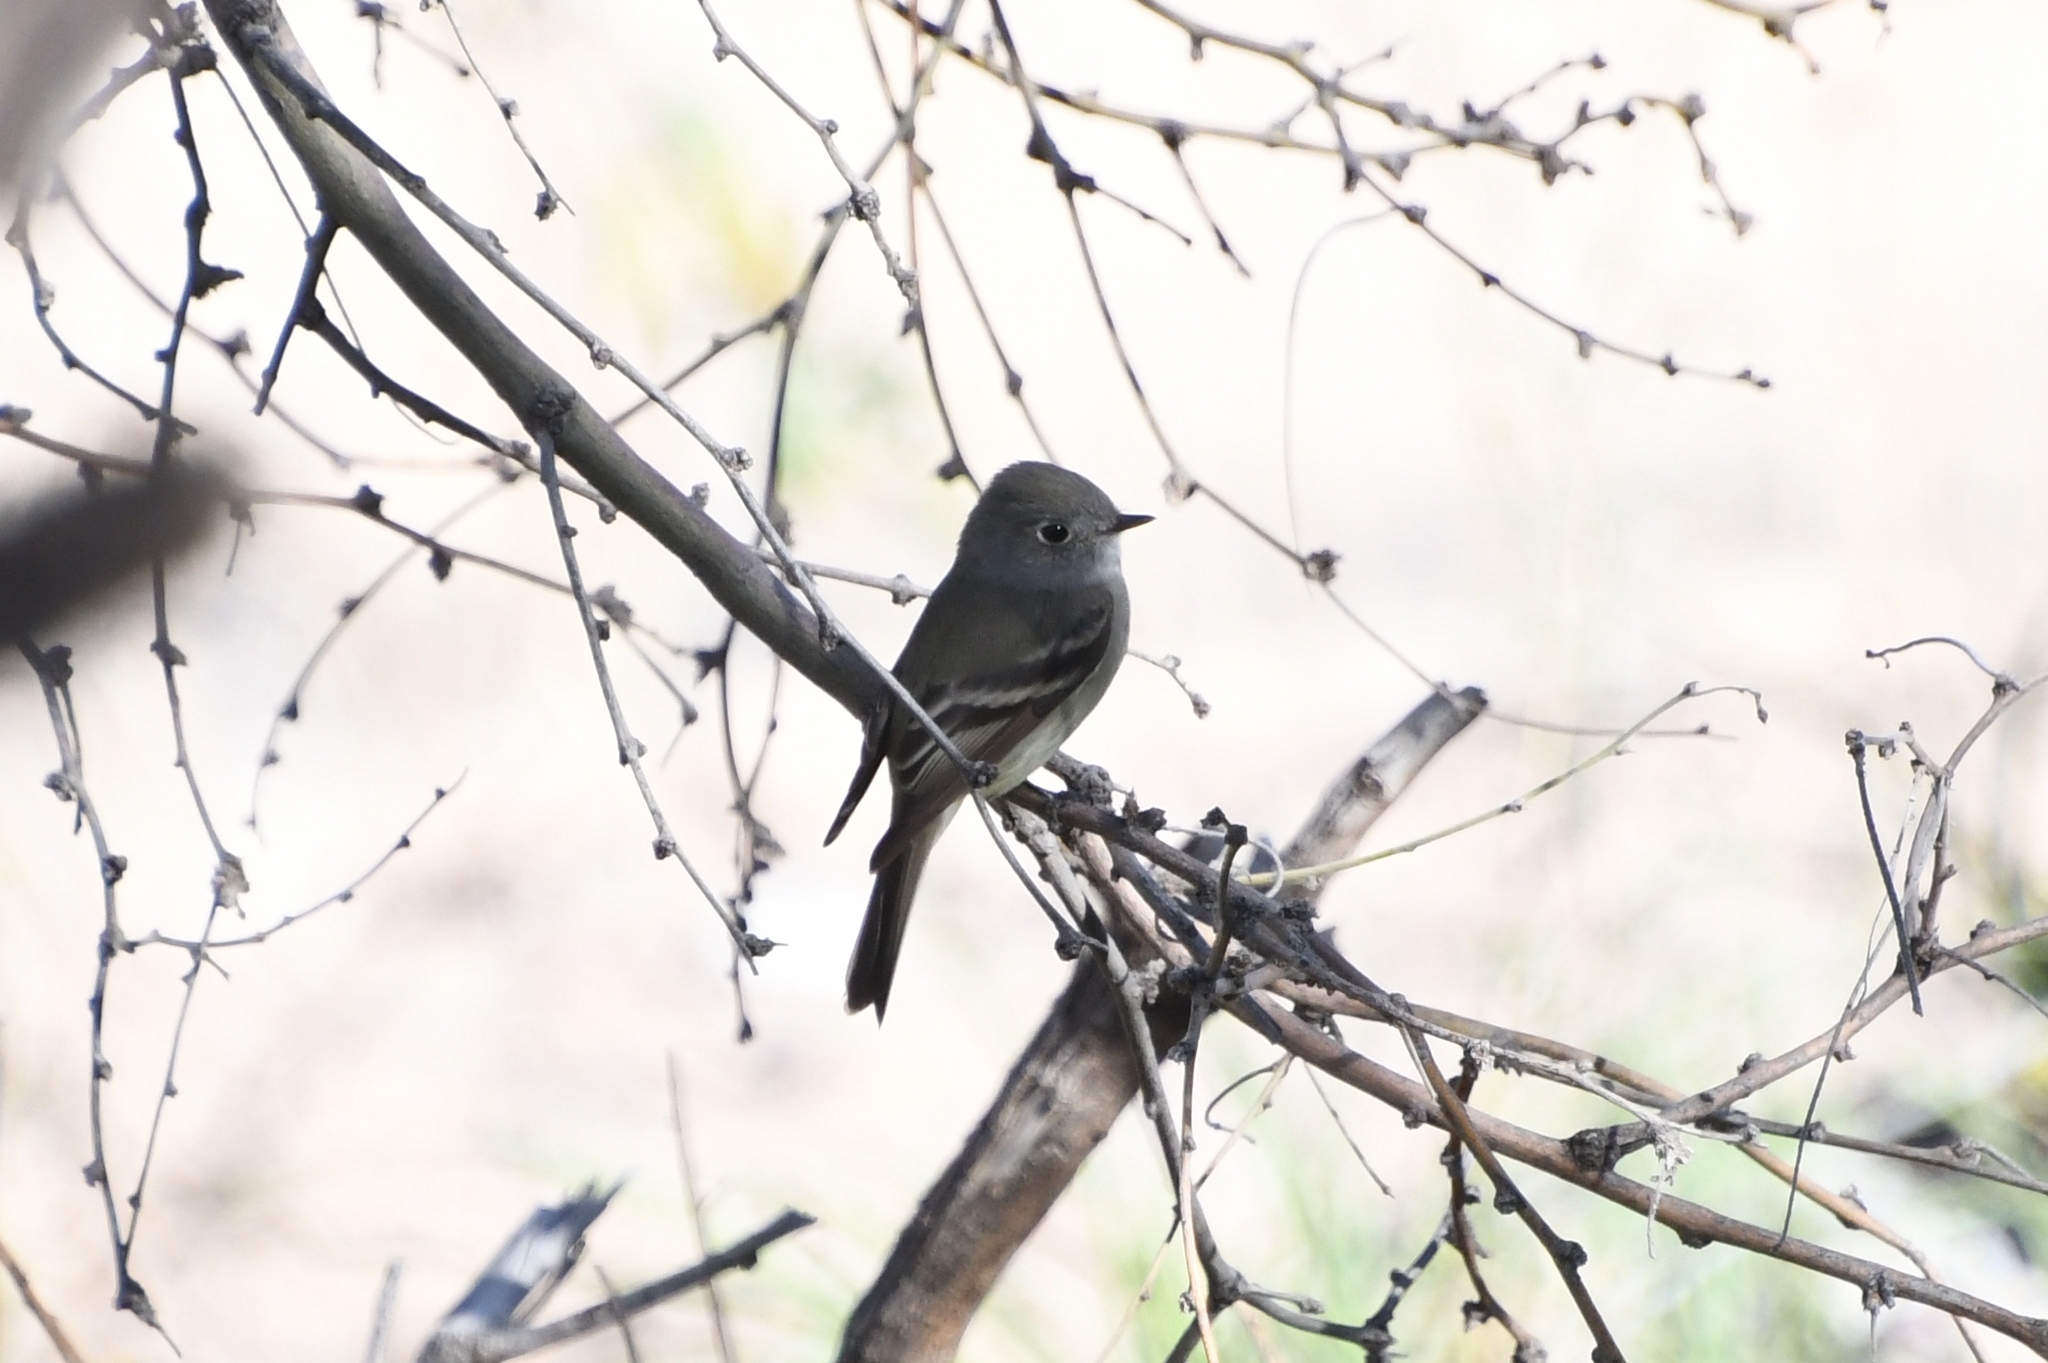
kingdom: Animalia
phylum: Chordata
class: Aves
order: Passeriformes
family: Tyrannidae
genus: Empidonax
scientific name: Empidonax hammondii
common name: Hammond's flycatcher
